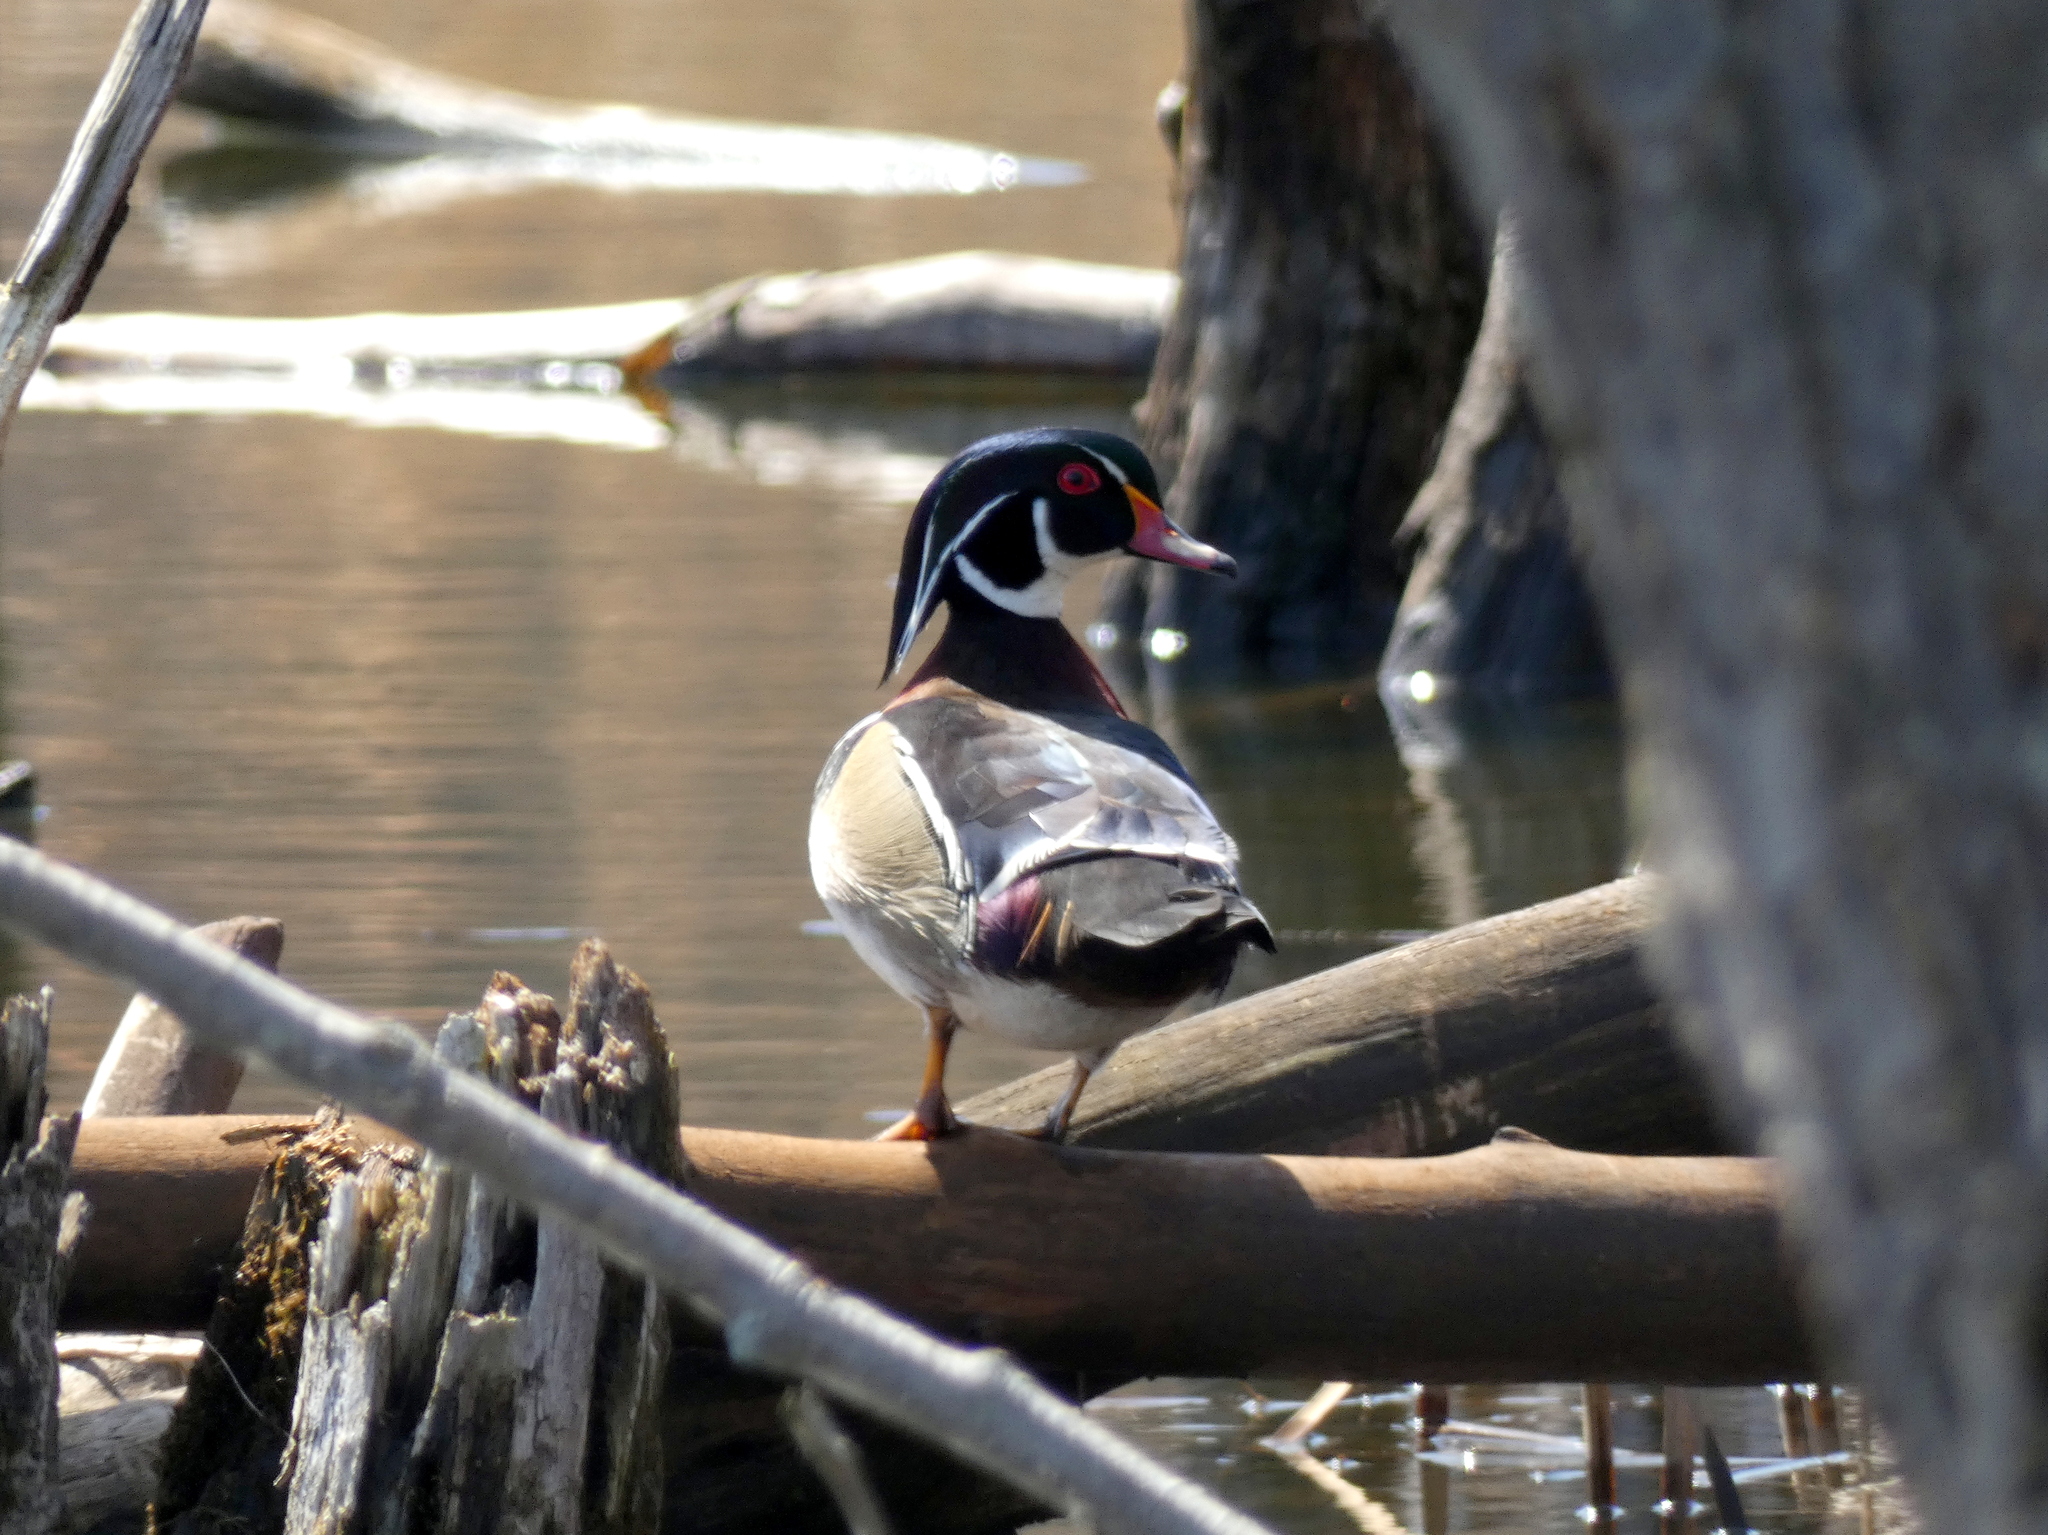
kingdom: Animalia
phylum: Chordata
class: Aves
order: Anseriformes
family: Anatidae
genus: Aix
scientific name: Aix sponsa
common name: Wood duck
